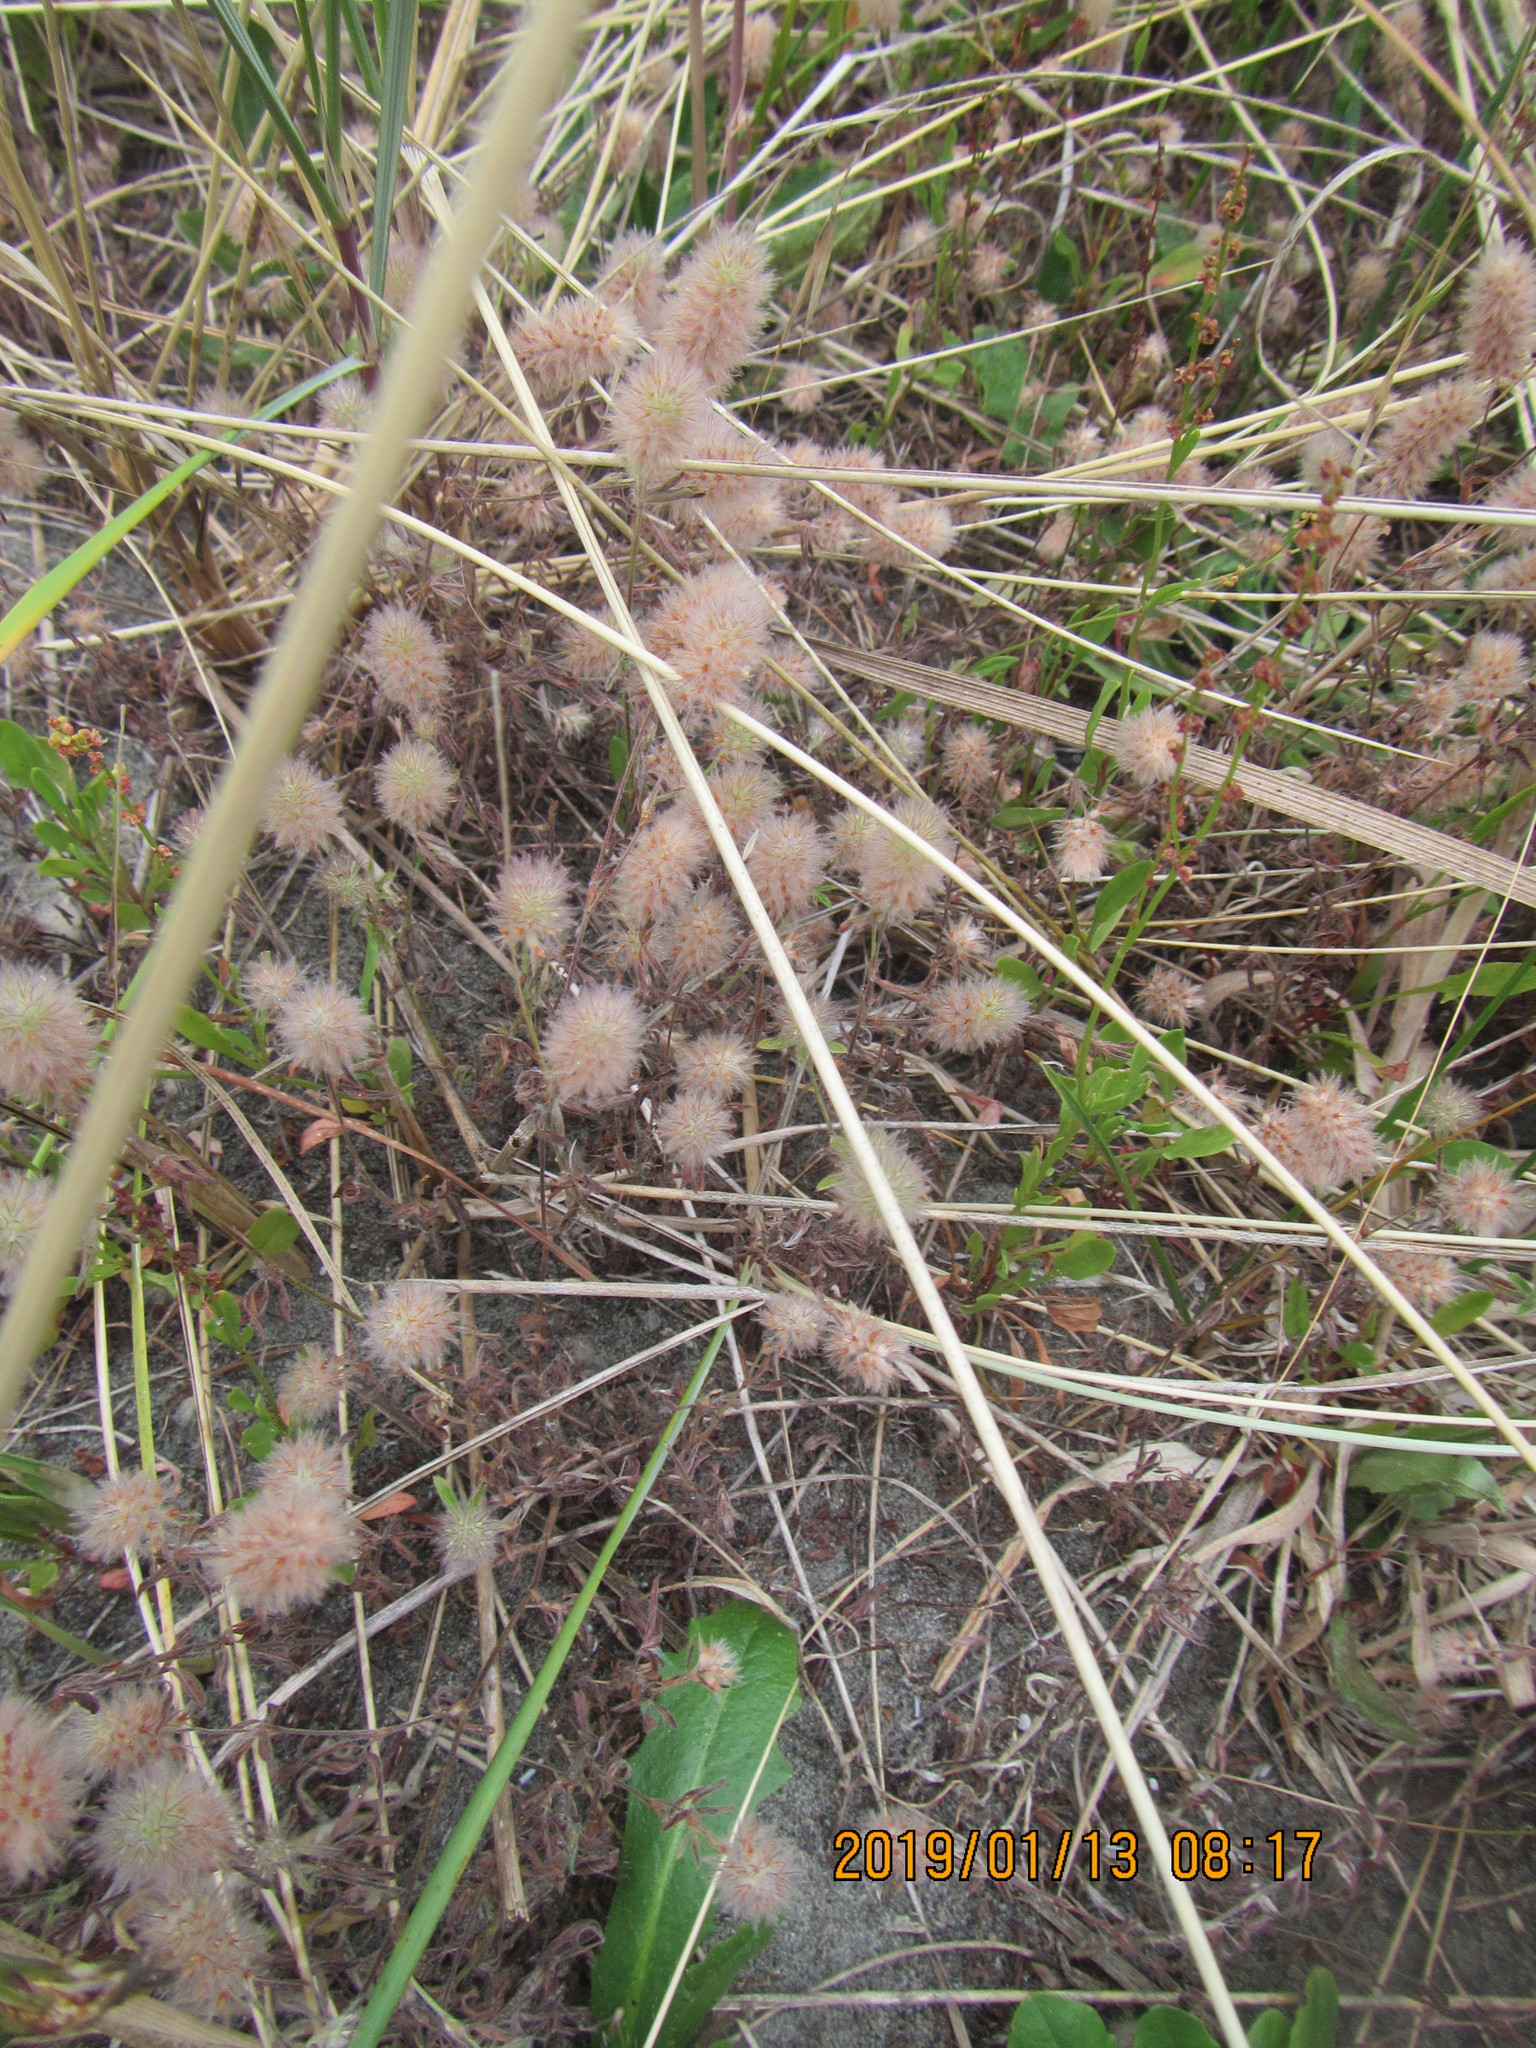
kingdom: Plantae
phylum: Tracheophyta
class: Magnoliopsida
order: Fabales
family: Fabaceae
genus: Trifolium
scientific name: Trifolium arvense
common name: Hare's-foot clover
